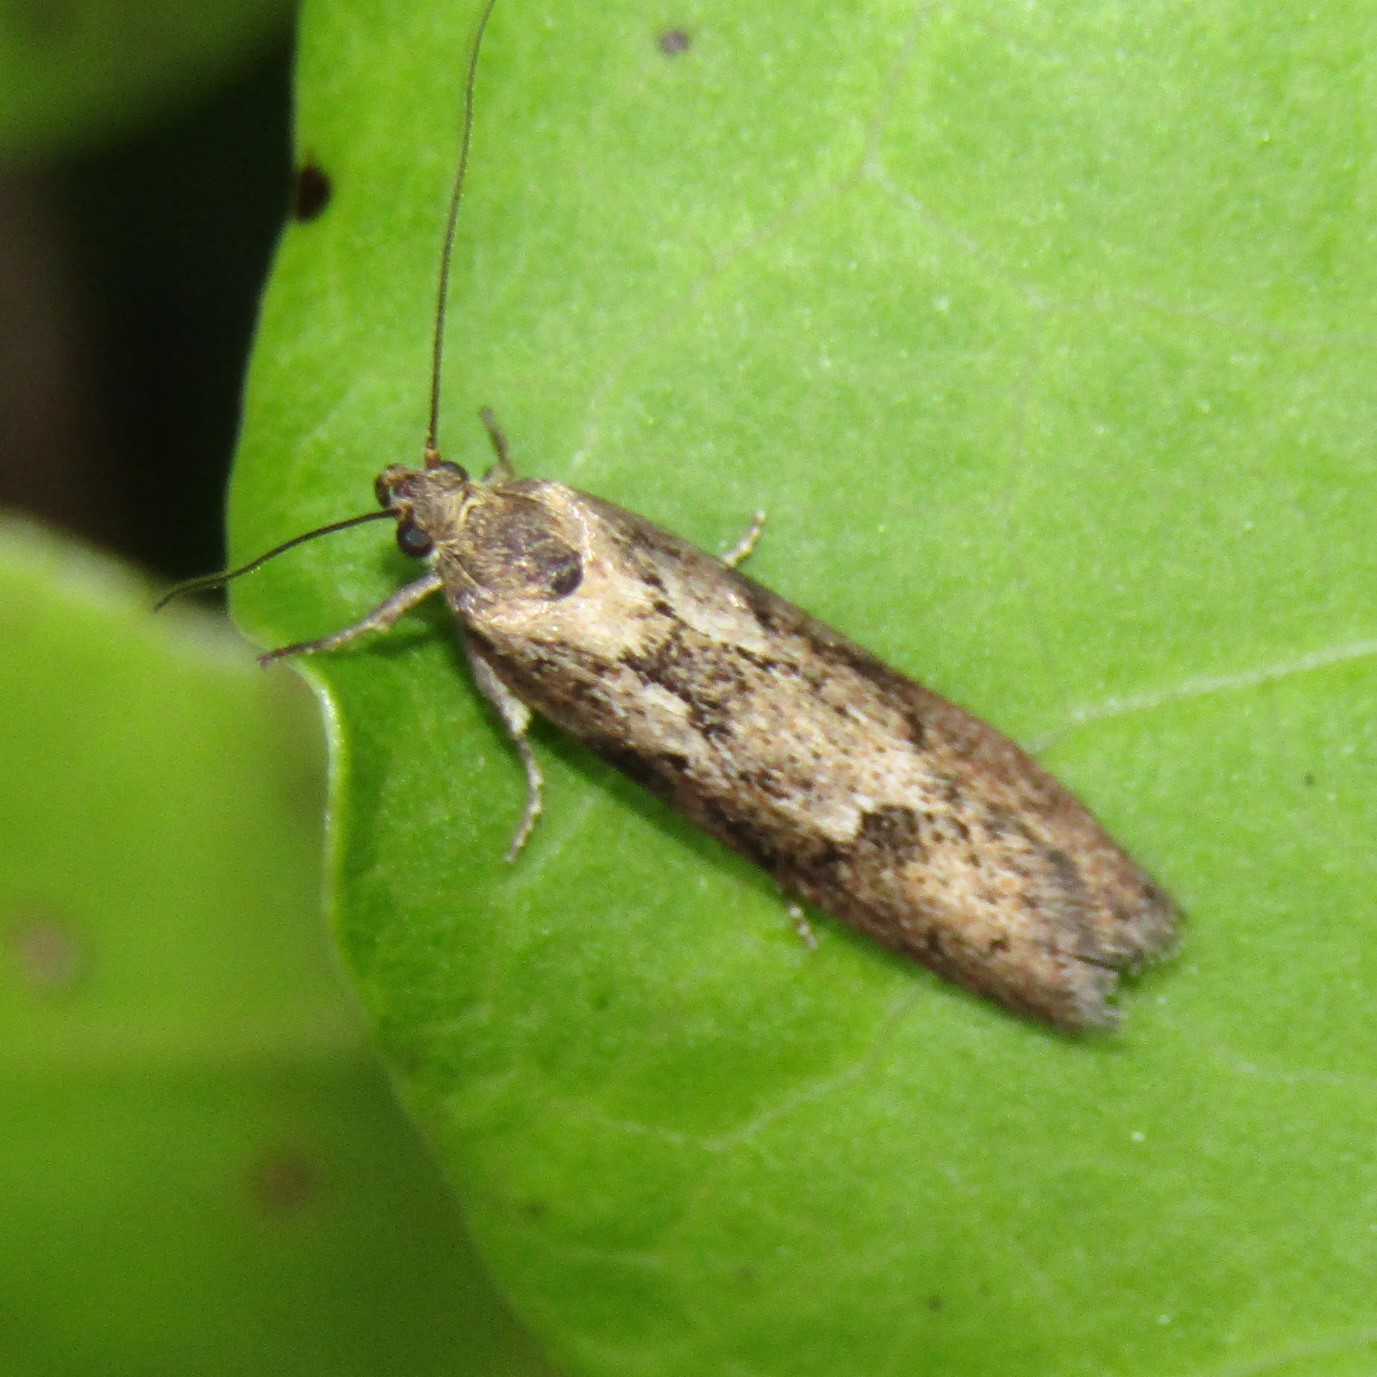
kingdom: Animalia
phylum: Arthropoda
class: Insecta
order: Lepidoptera
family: Oecophoridae
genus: Chersadaula
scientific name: Chersadaula ochrogastra
